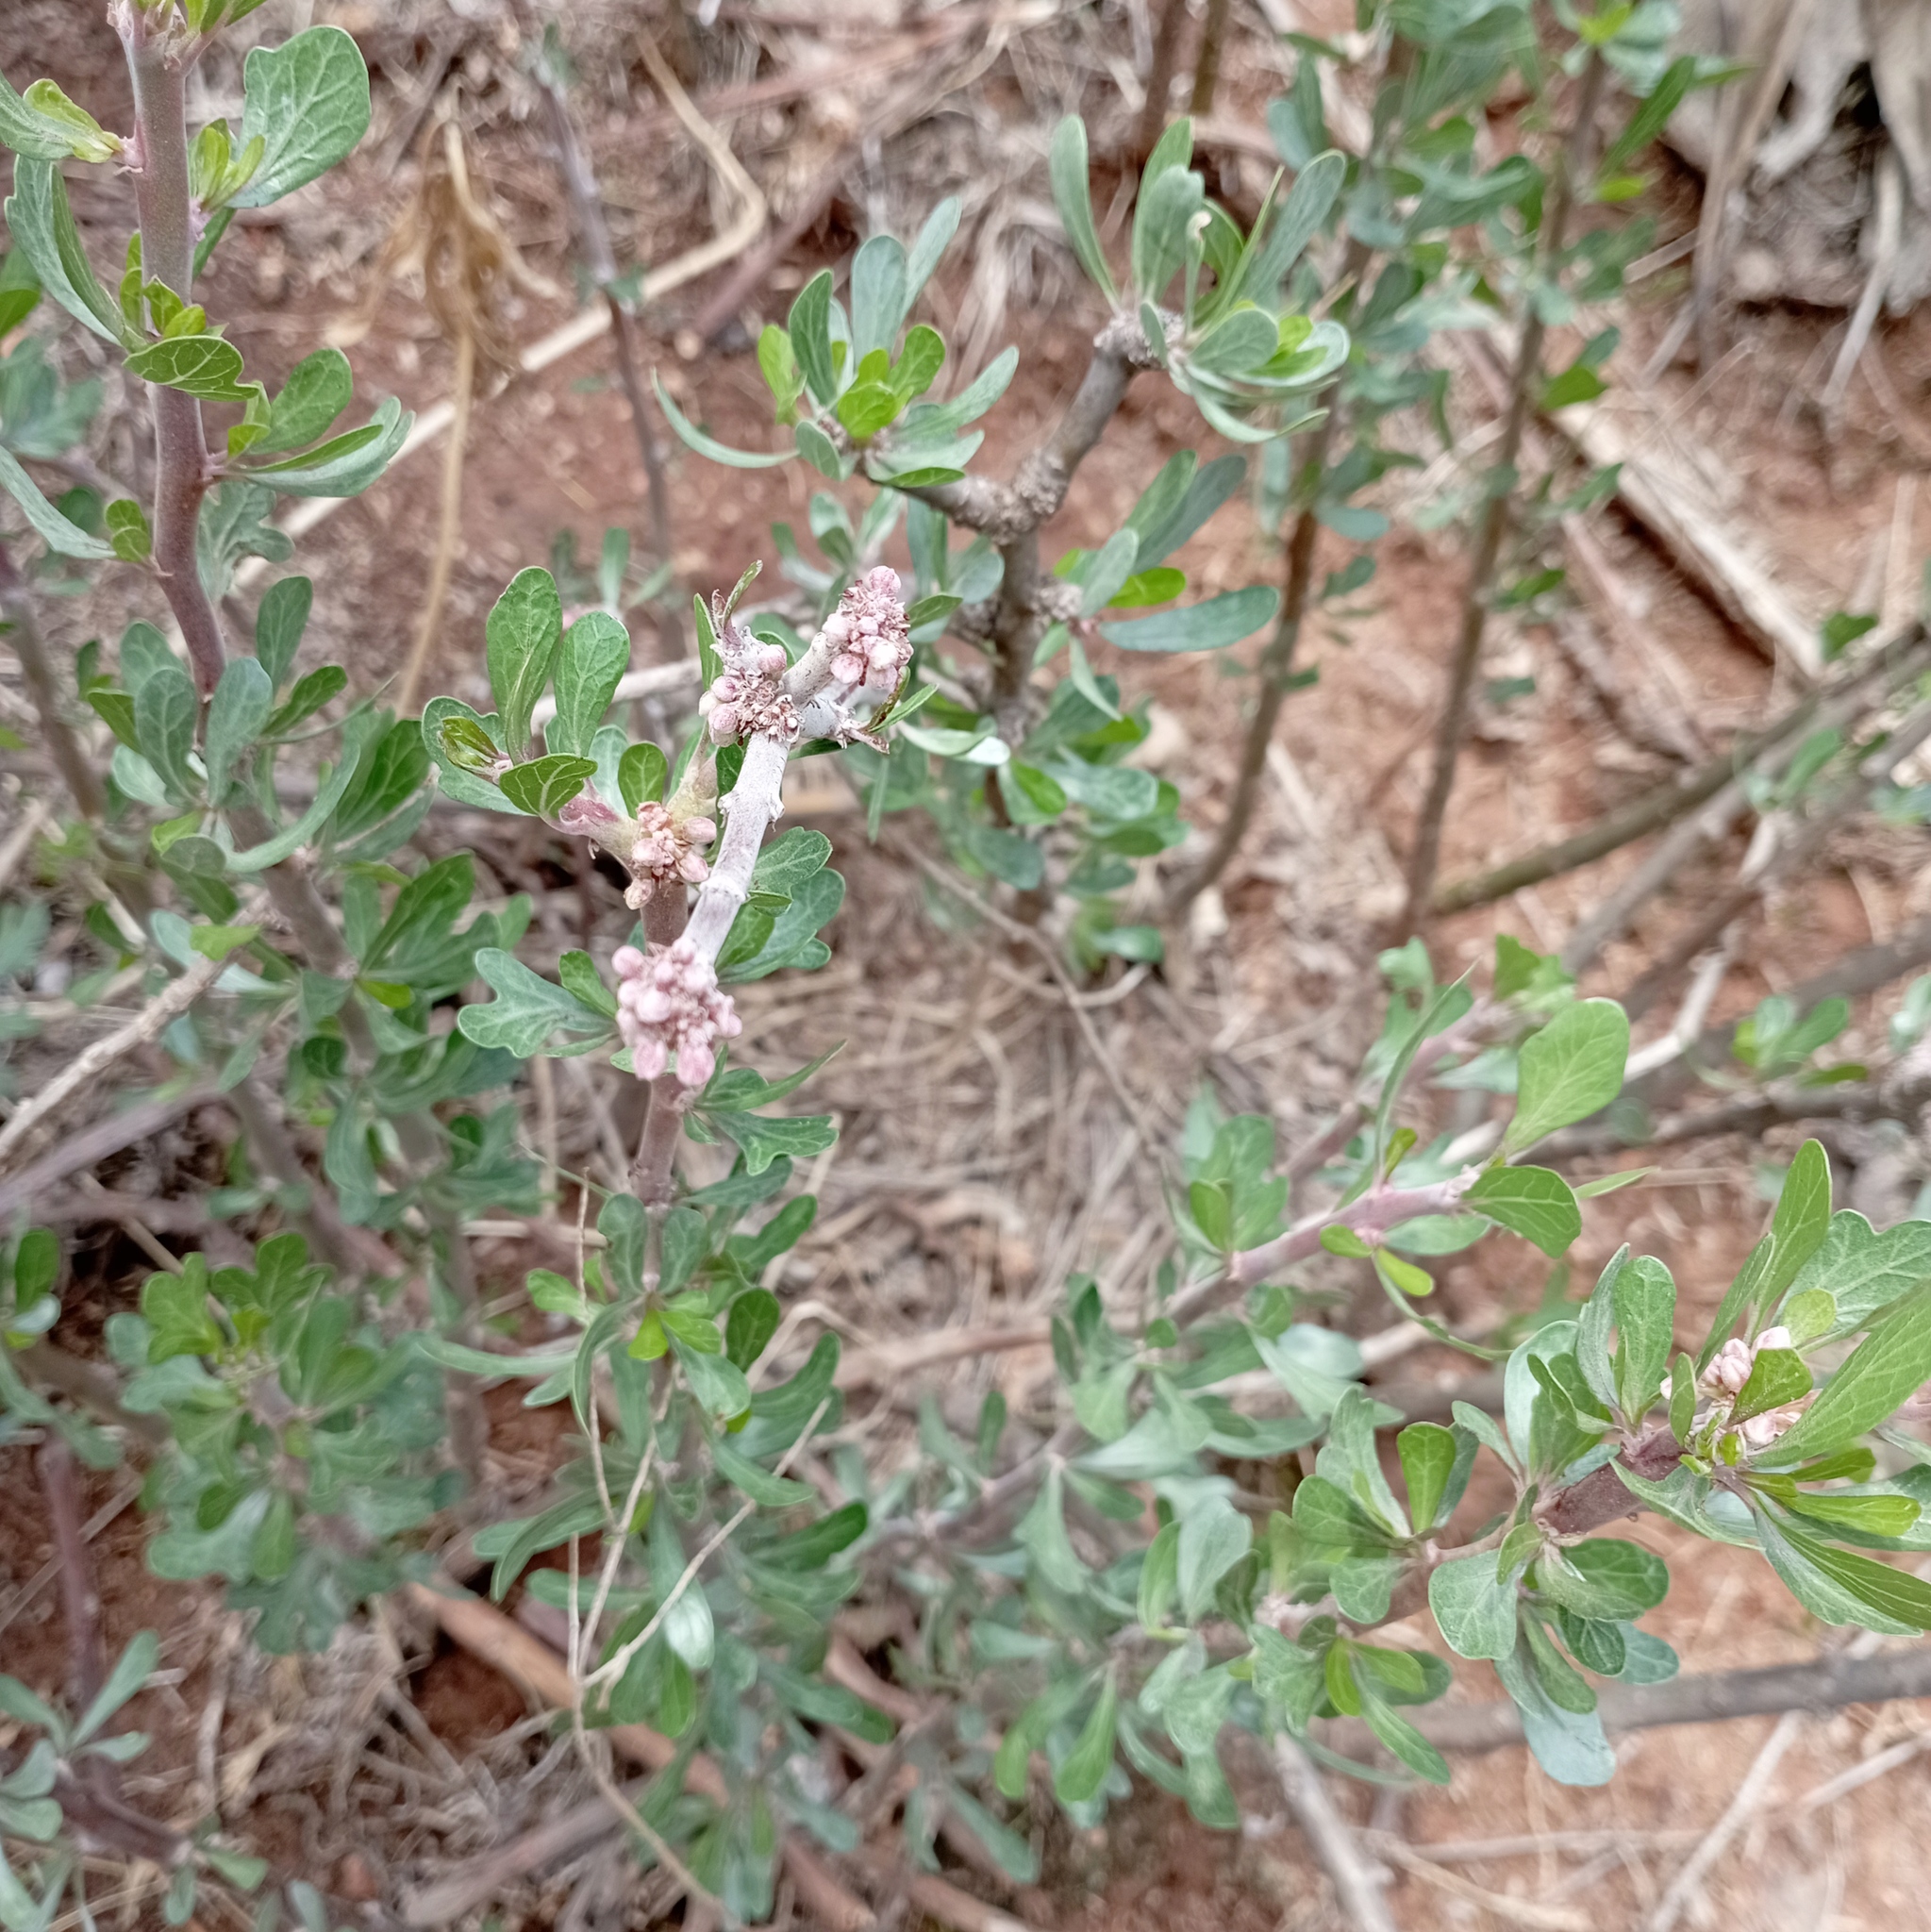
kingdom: Plantae
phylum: Tracheophyta
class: Magnoliopsida
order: Malpighiales
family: Euphorbiaceae
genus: Jatropha
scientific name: Jatropha dioica
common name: Leatherstem
